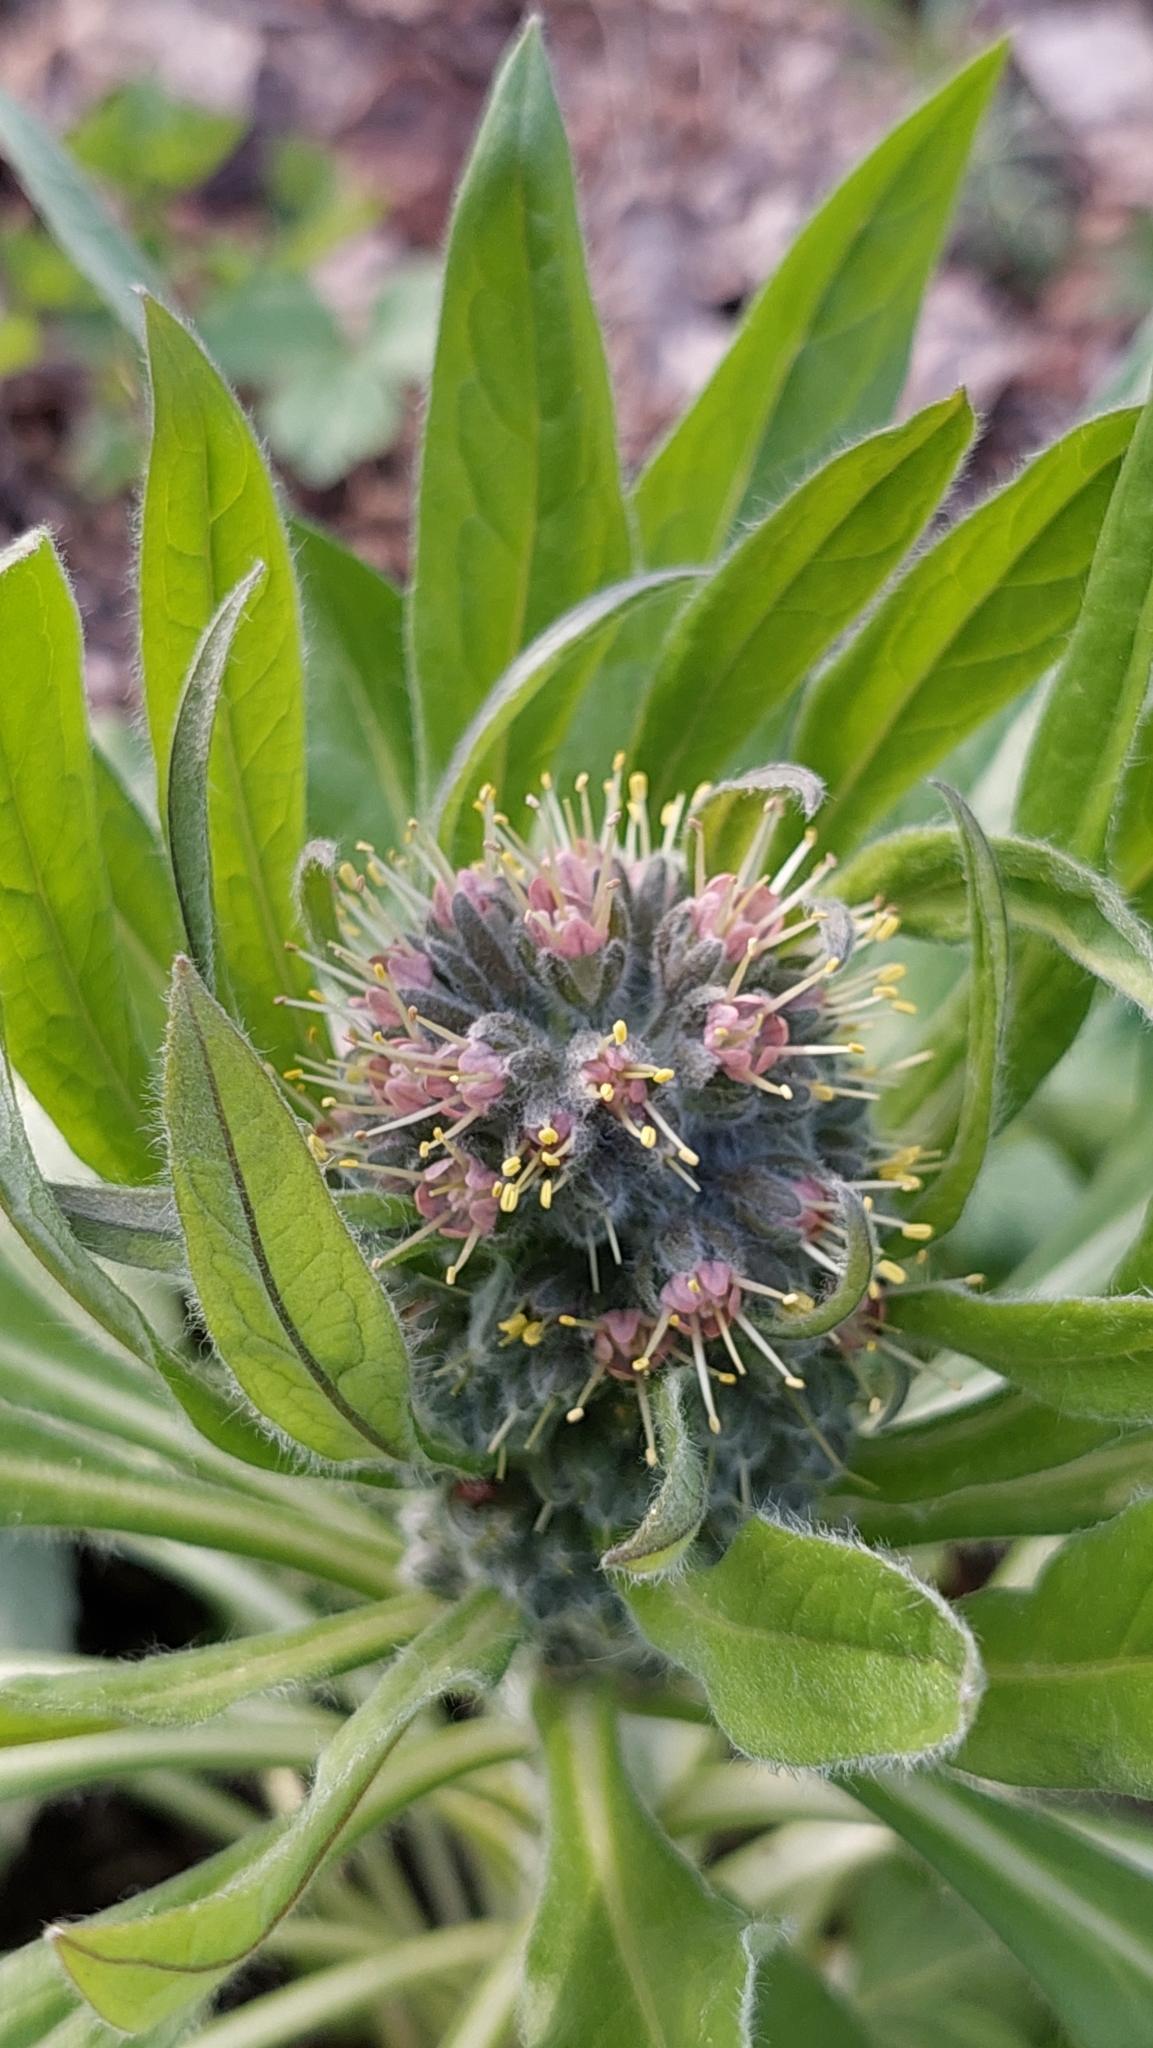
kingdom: Plantae
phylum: Tracheophyta
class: Magnoliopsida
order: Boraginales
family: Boraginaceae
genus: Solenanthus
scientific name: Solenanthus dubius
